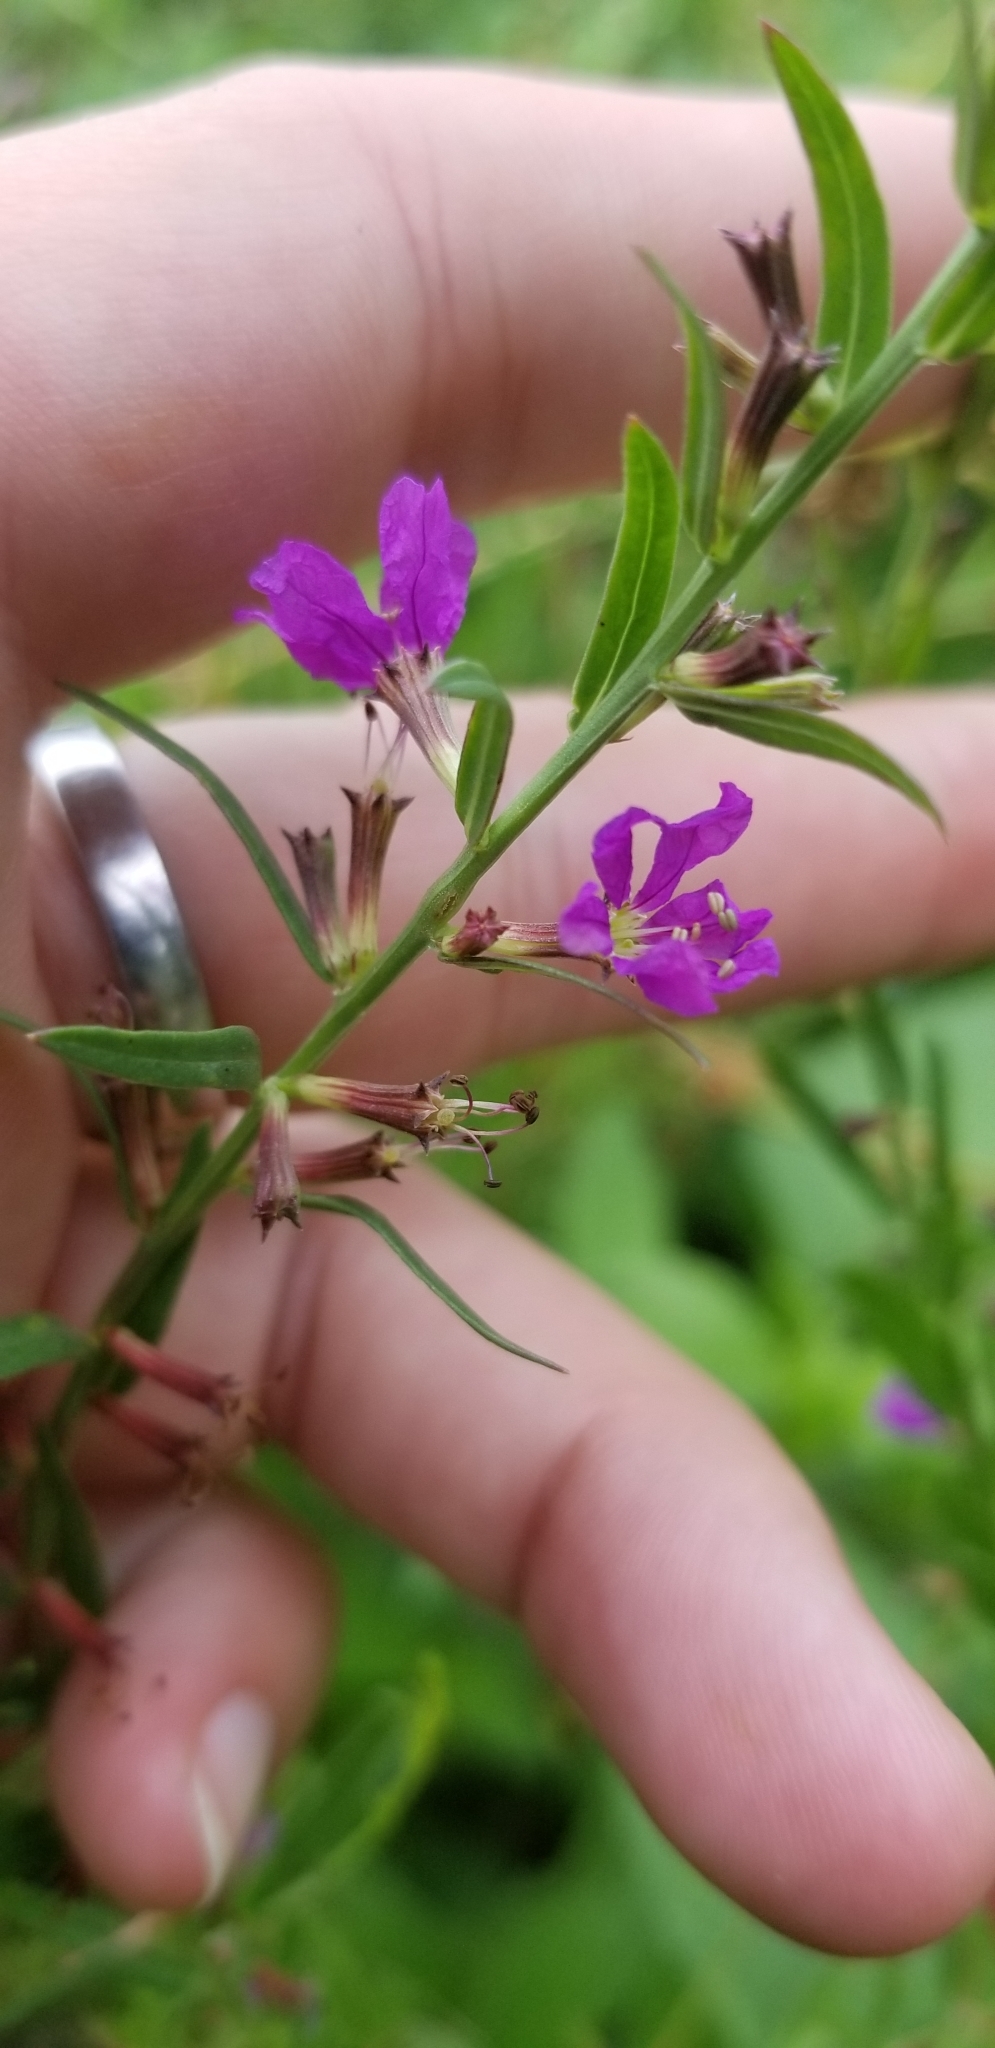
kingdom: Plantae
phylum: Tracheophyta
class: Magnoliopsida
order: Myrtales
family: Lythraceae
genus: Lythrum
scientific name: Lythrum alatum
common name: Winged loosestrife
